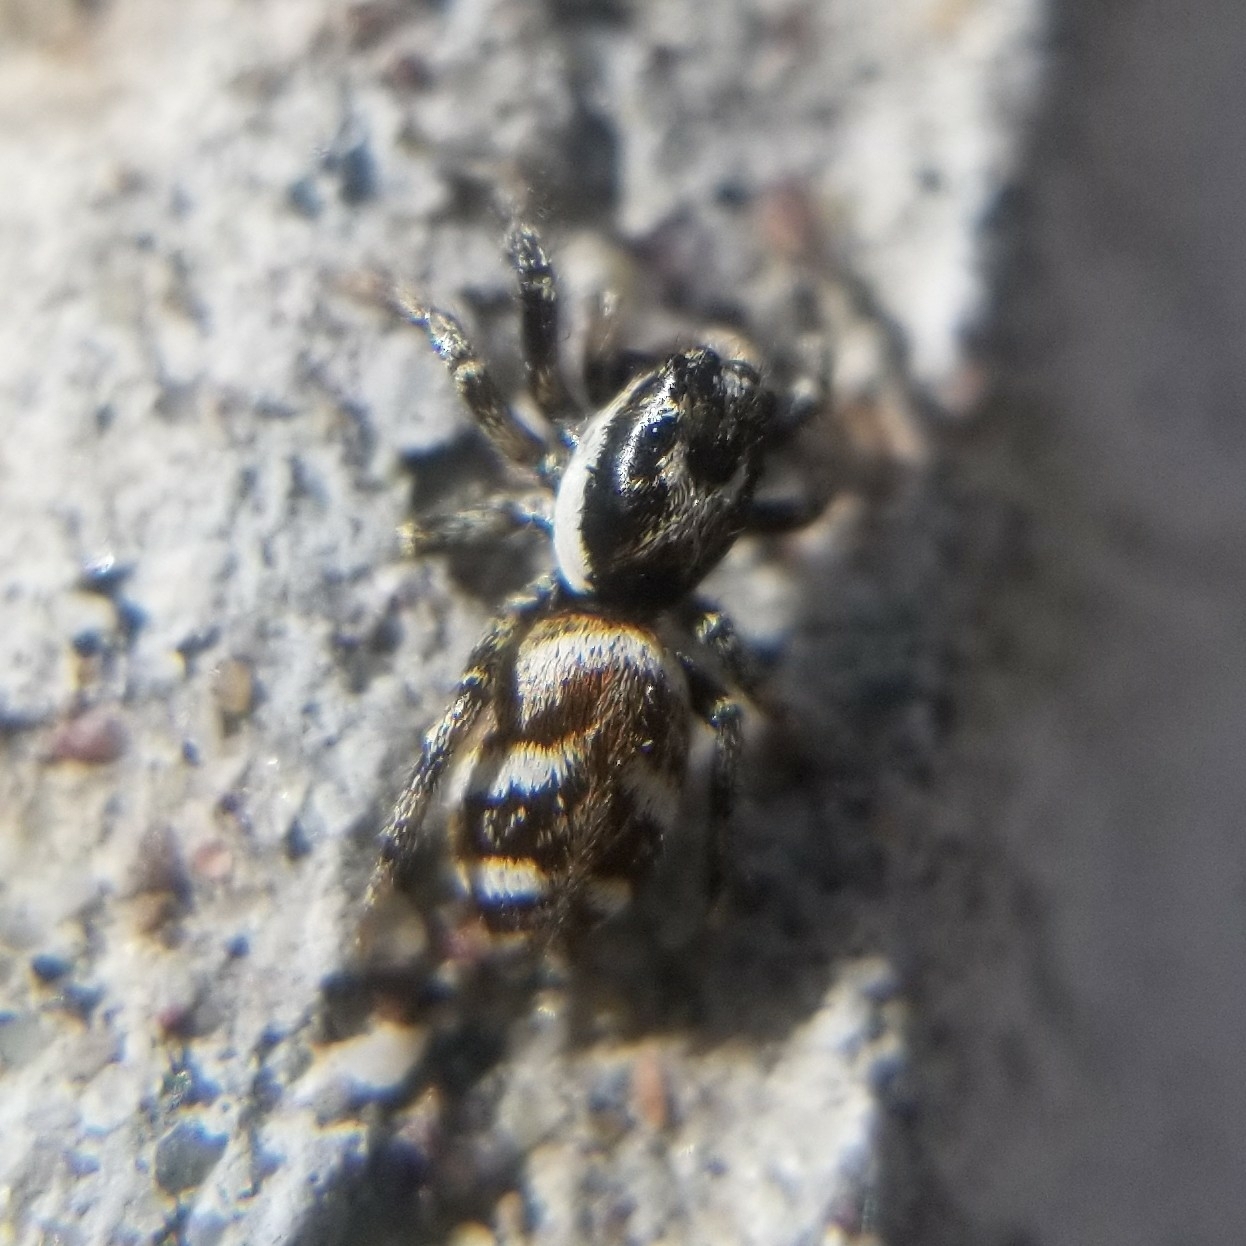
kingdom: Animalia
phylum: Arthropoda
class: Arachnida
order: Araneae
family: Salticidae
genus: Salticus
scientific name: Salticus scenicus
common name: Zebra jumper
